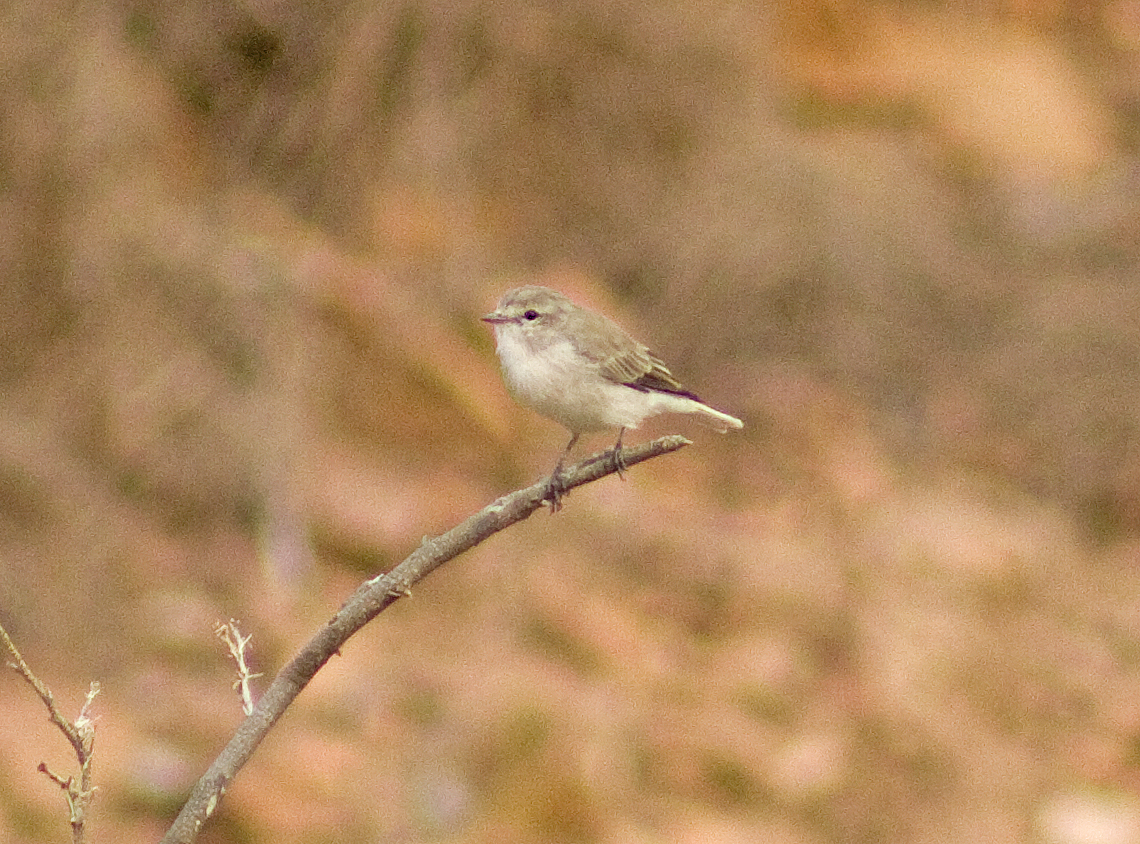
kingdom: Animalia
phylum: Chordata
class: Aves
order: Passeriformes
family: Petroicidae
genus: Microeca
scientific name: Microeca fascinans
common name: Jacky winter
